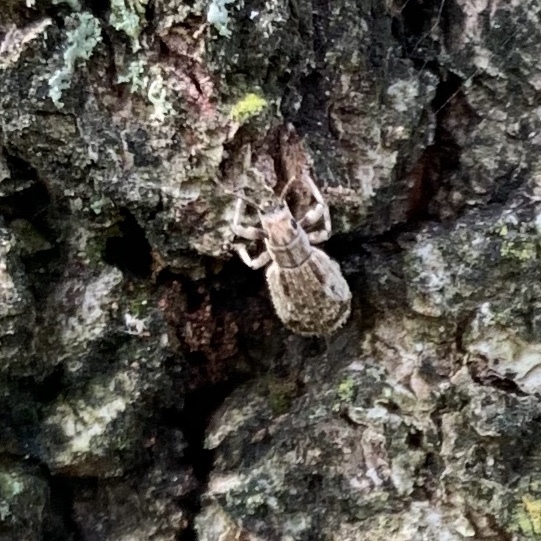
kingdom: Animalia
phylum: Arthropoda
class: Insecta
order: Coleoptera
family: Curculionidae
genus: Pseudoedophrys
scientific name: Pseudoedophrys hilleri
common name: Weevil
